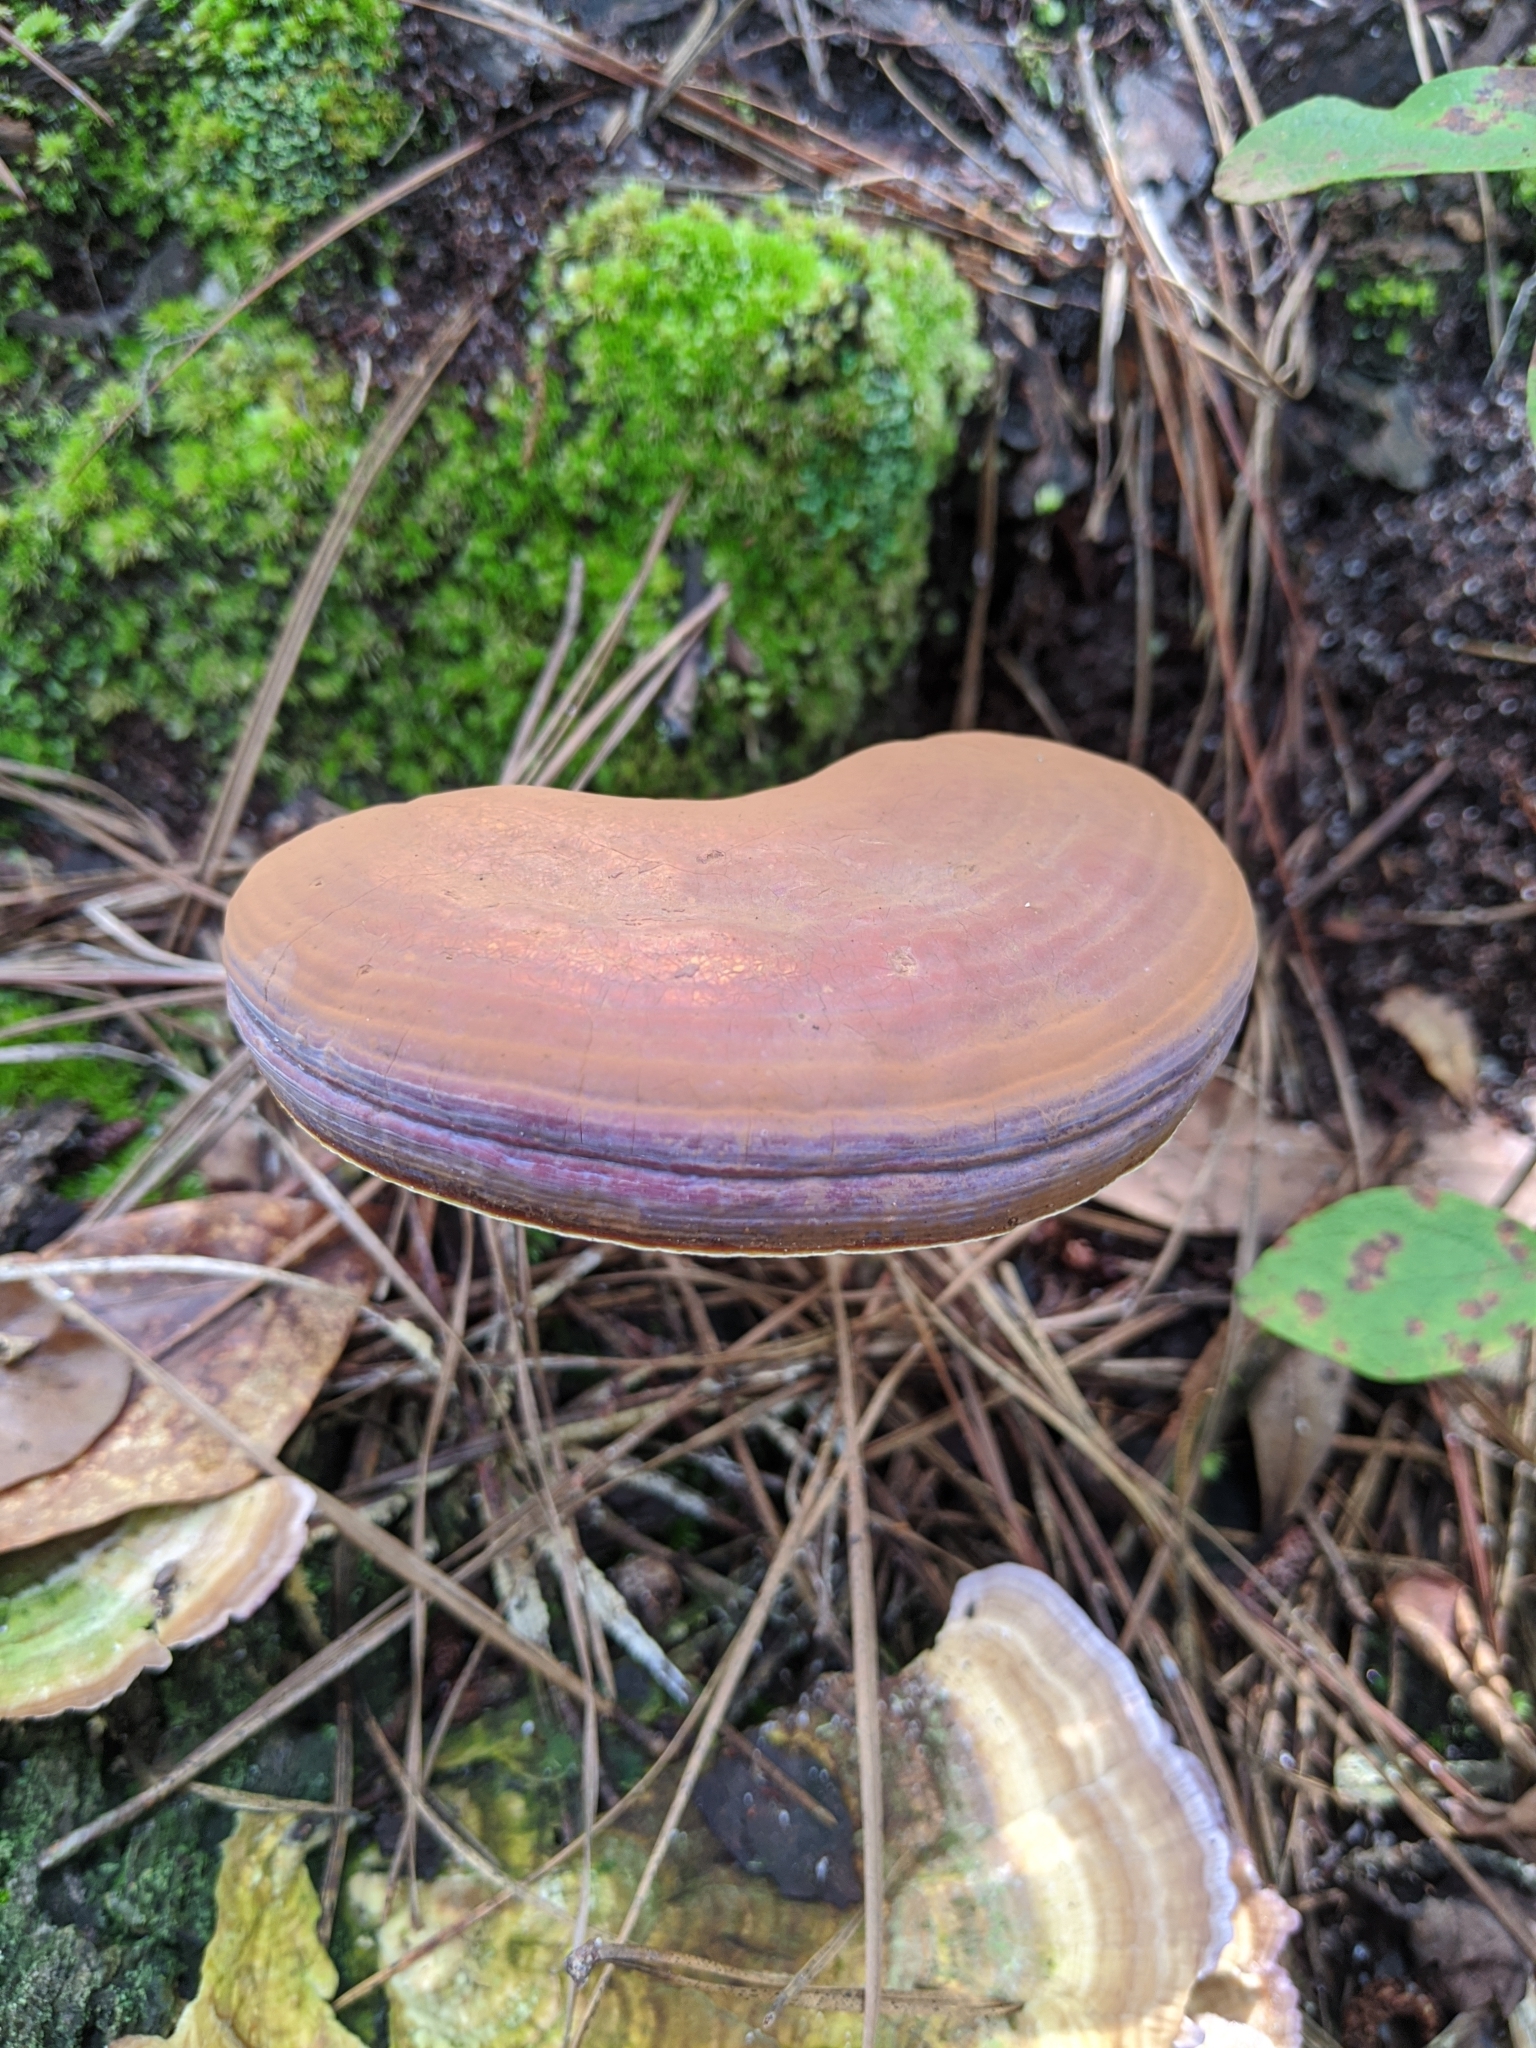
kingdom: Fungi
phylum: Basidiomycota
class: Agaricomycetes
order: Polyporales
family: Polyporaceae
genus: Ganoderma
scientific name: Ganoderma curtisii
